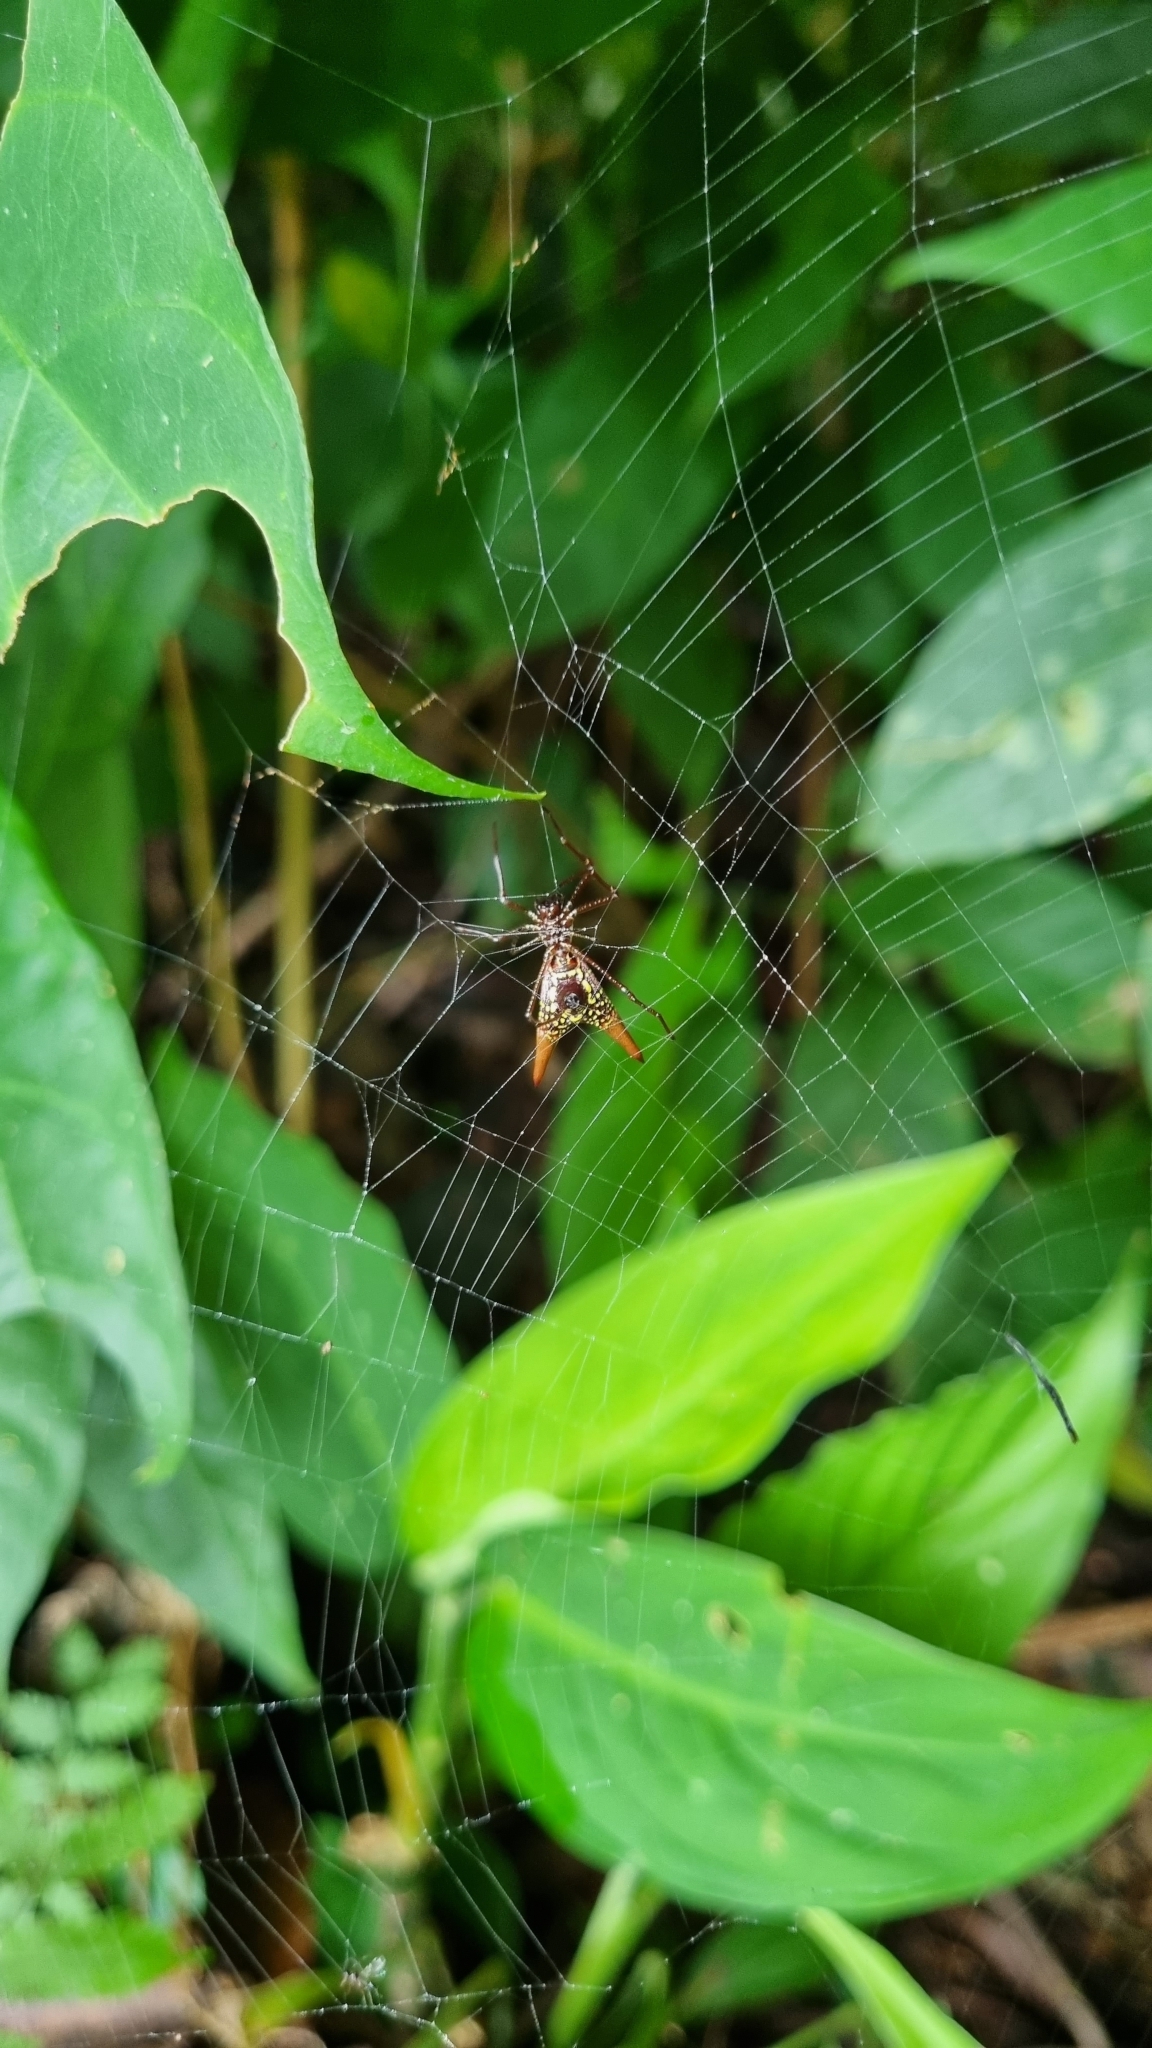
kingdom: Animalia
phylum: Arthropoda
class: Arachnida
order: Araneae
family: Araneidae
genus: Micrathena
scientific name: Micrathena sexspinosa
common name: Orb weavers
